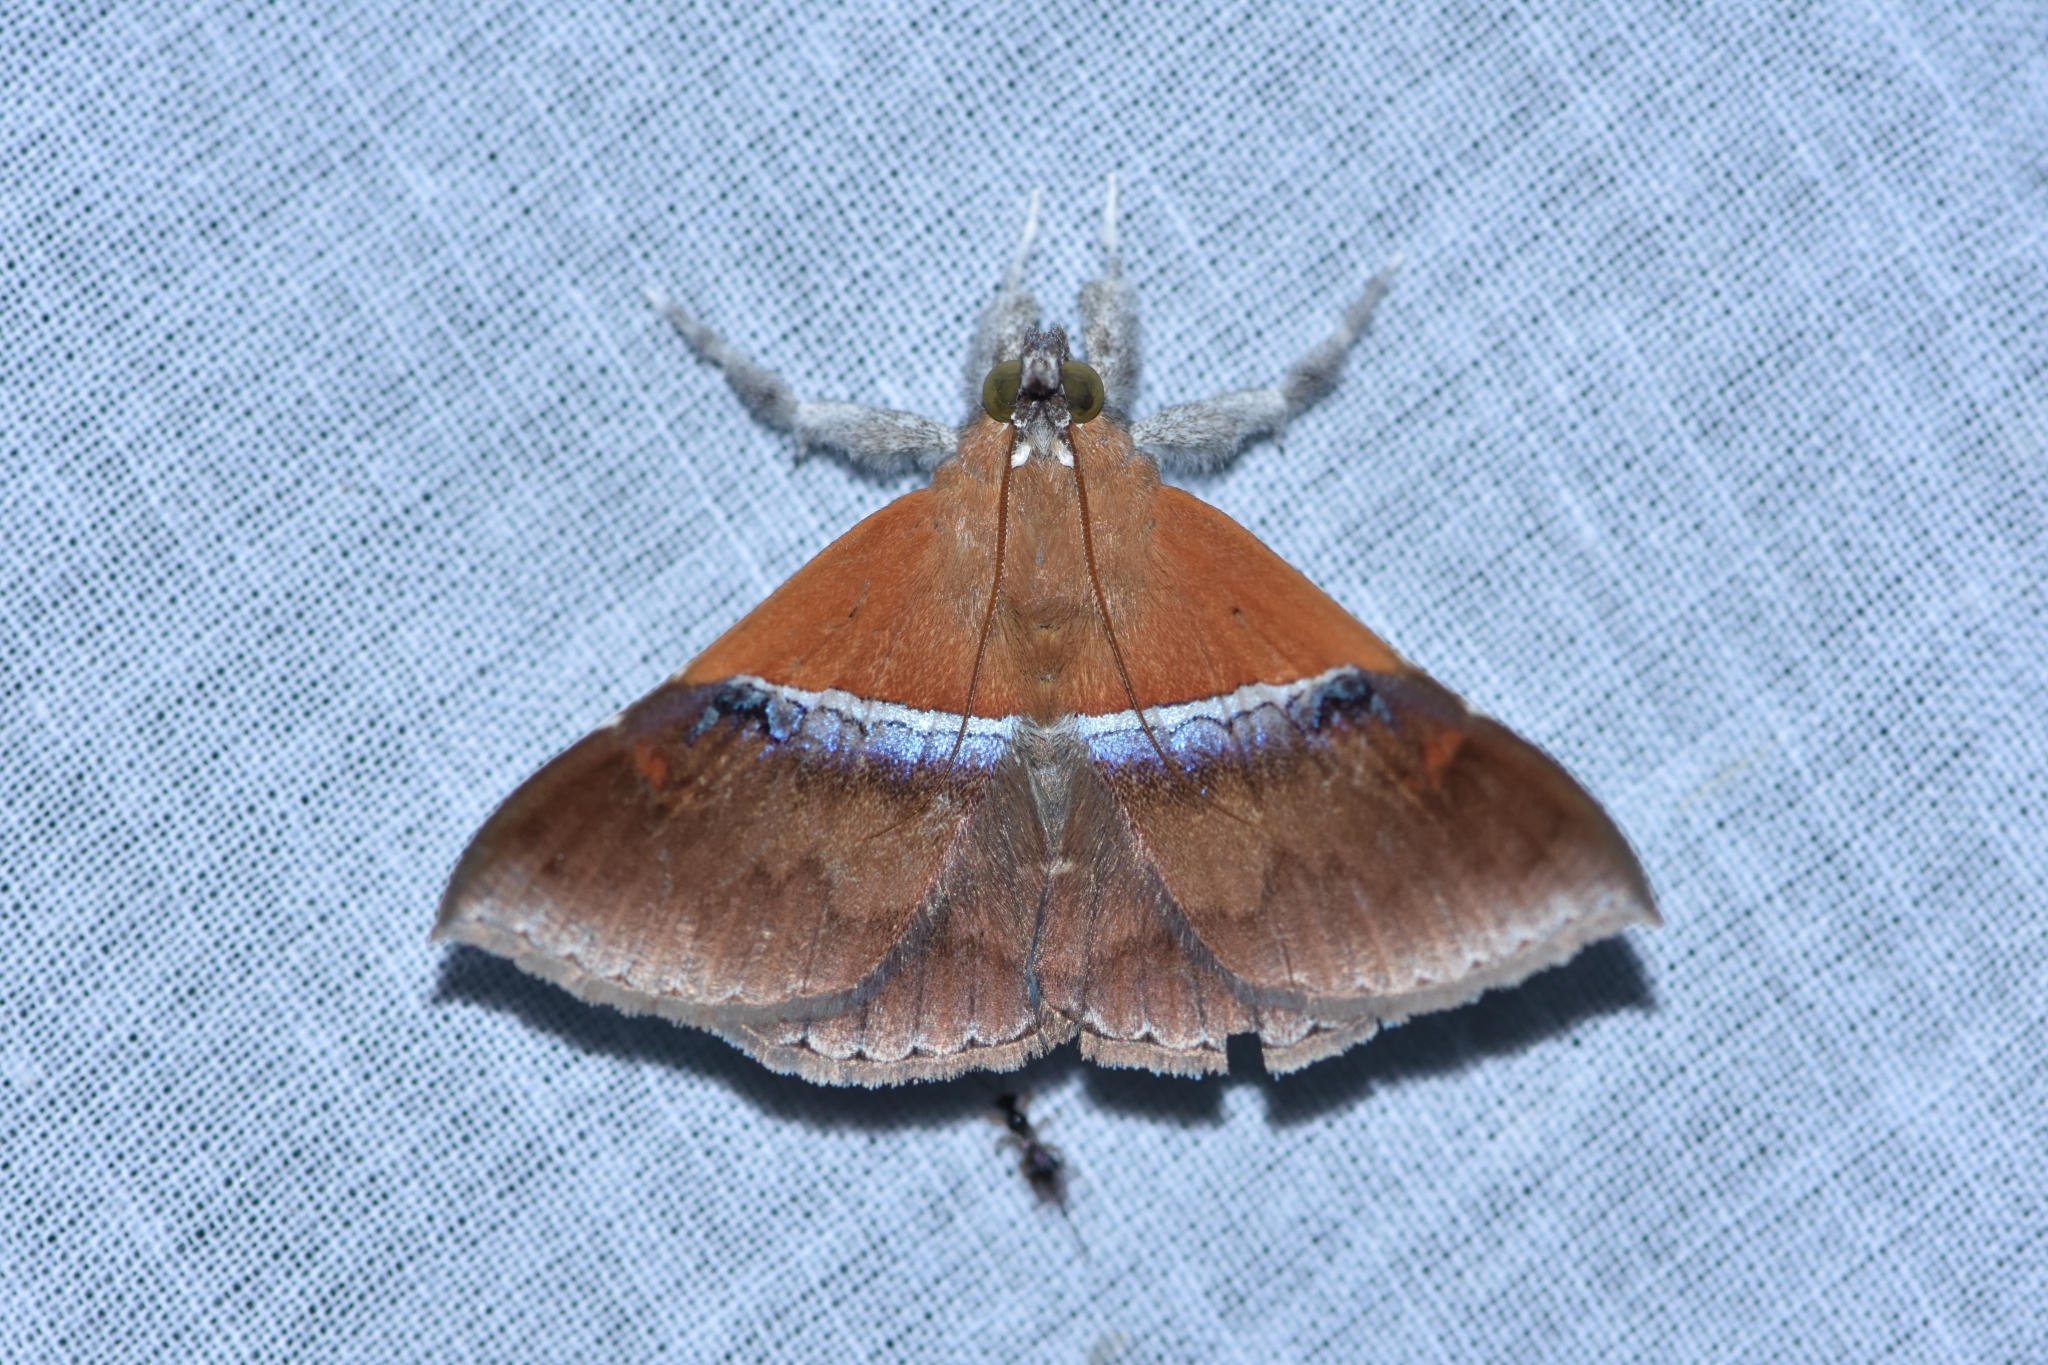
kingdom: Animalia
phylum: Arthropoda
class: Insecta
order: Lepidoptera
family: Erebidae
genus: Sympis
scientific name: Sympis rufibasis
